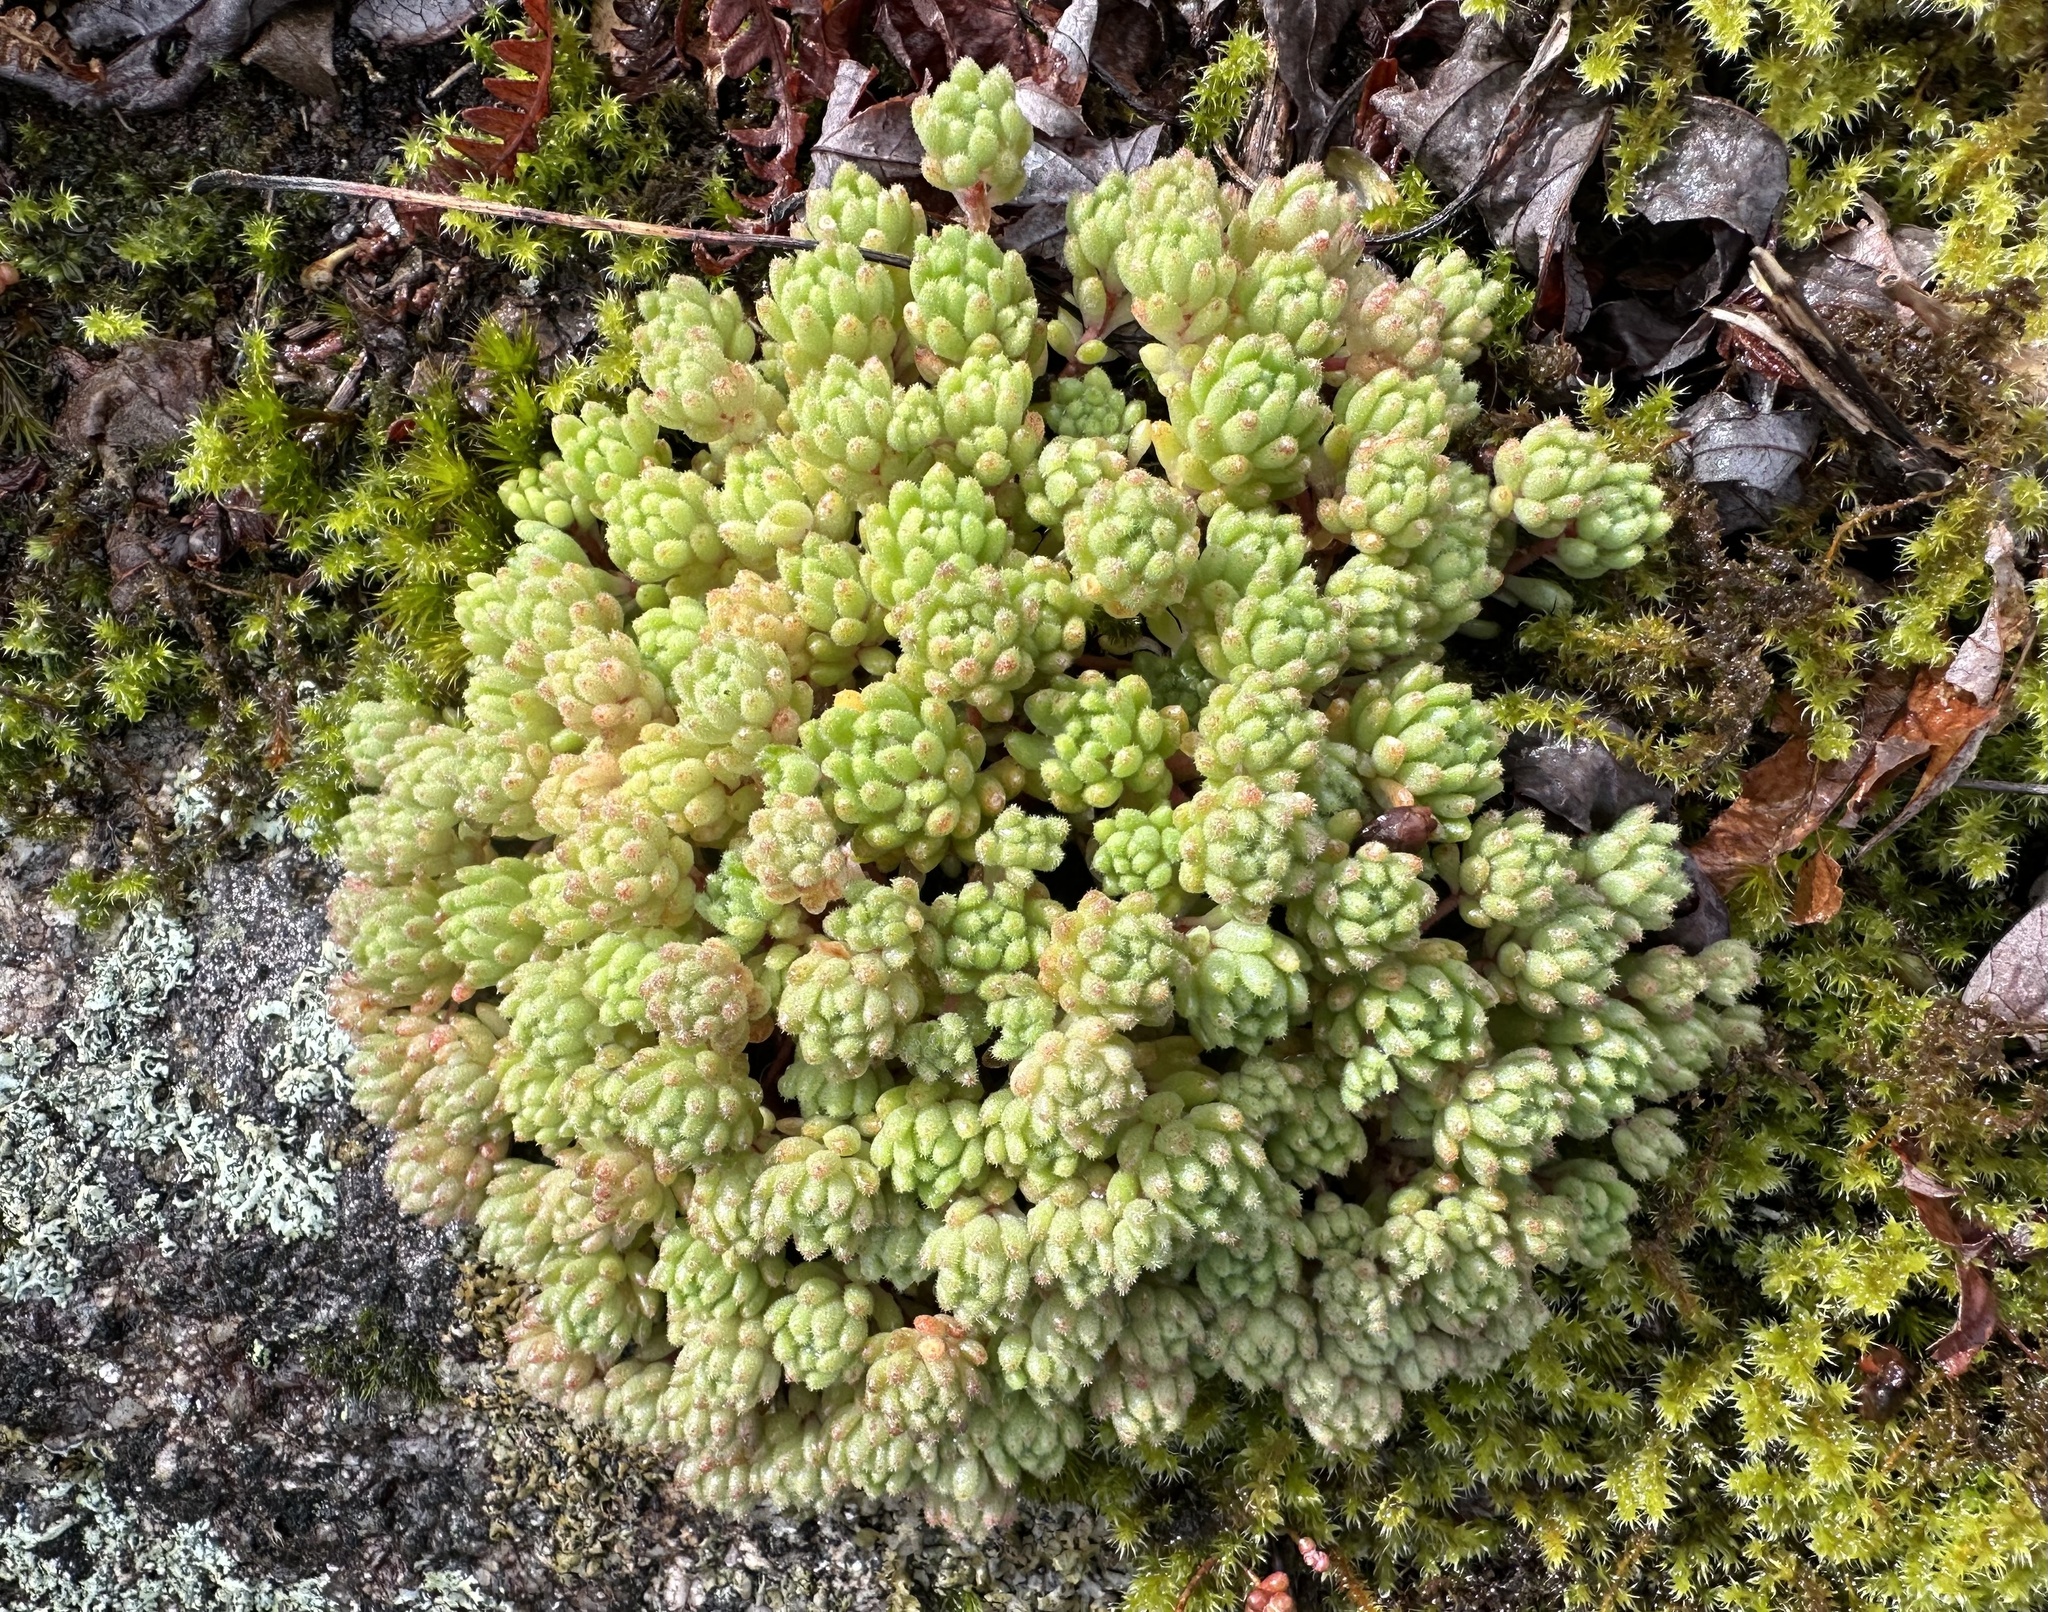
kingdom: Plantae
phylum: Tracheophyta
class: Magnoliopsida
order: Saxifragales
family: Crassulaceae
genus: Sedum
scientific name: Sedum hirsutum
